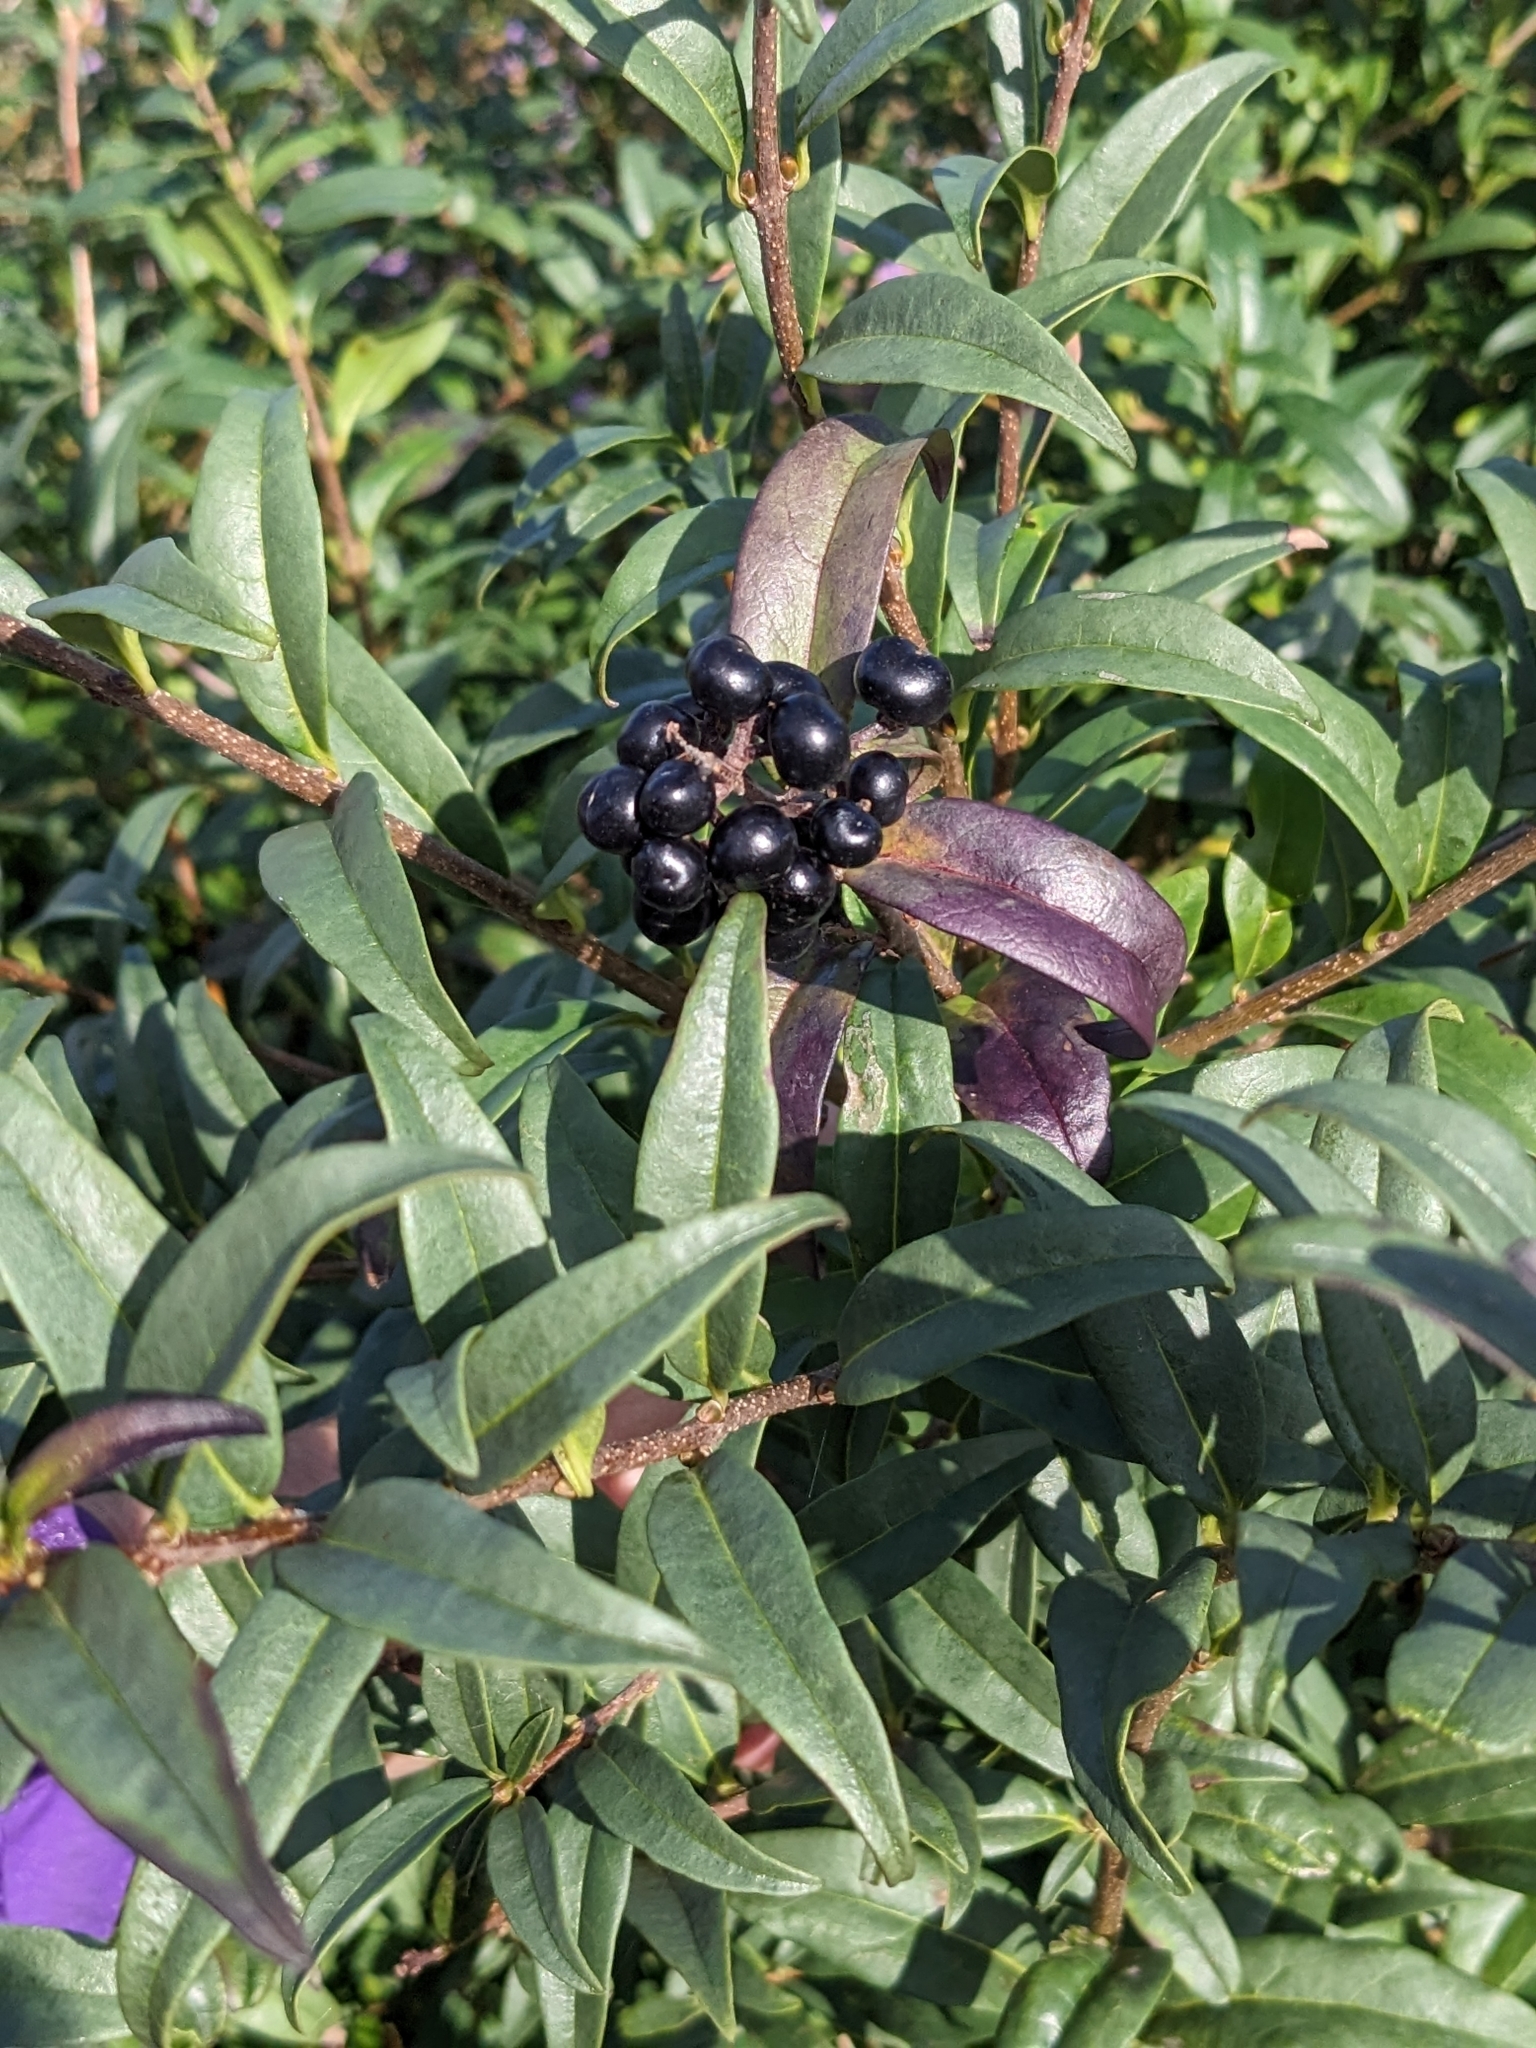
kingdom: Plantae
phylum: Tracheophyta
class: Magnoliopsida
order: Lamiales
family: Oleaceae
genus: Ligustrum
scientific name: Ligustrum vulgare
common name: Wild privet
